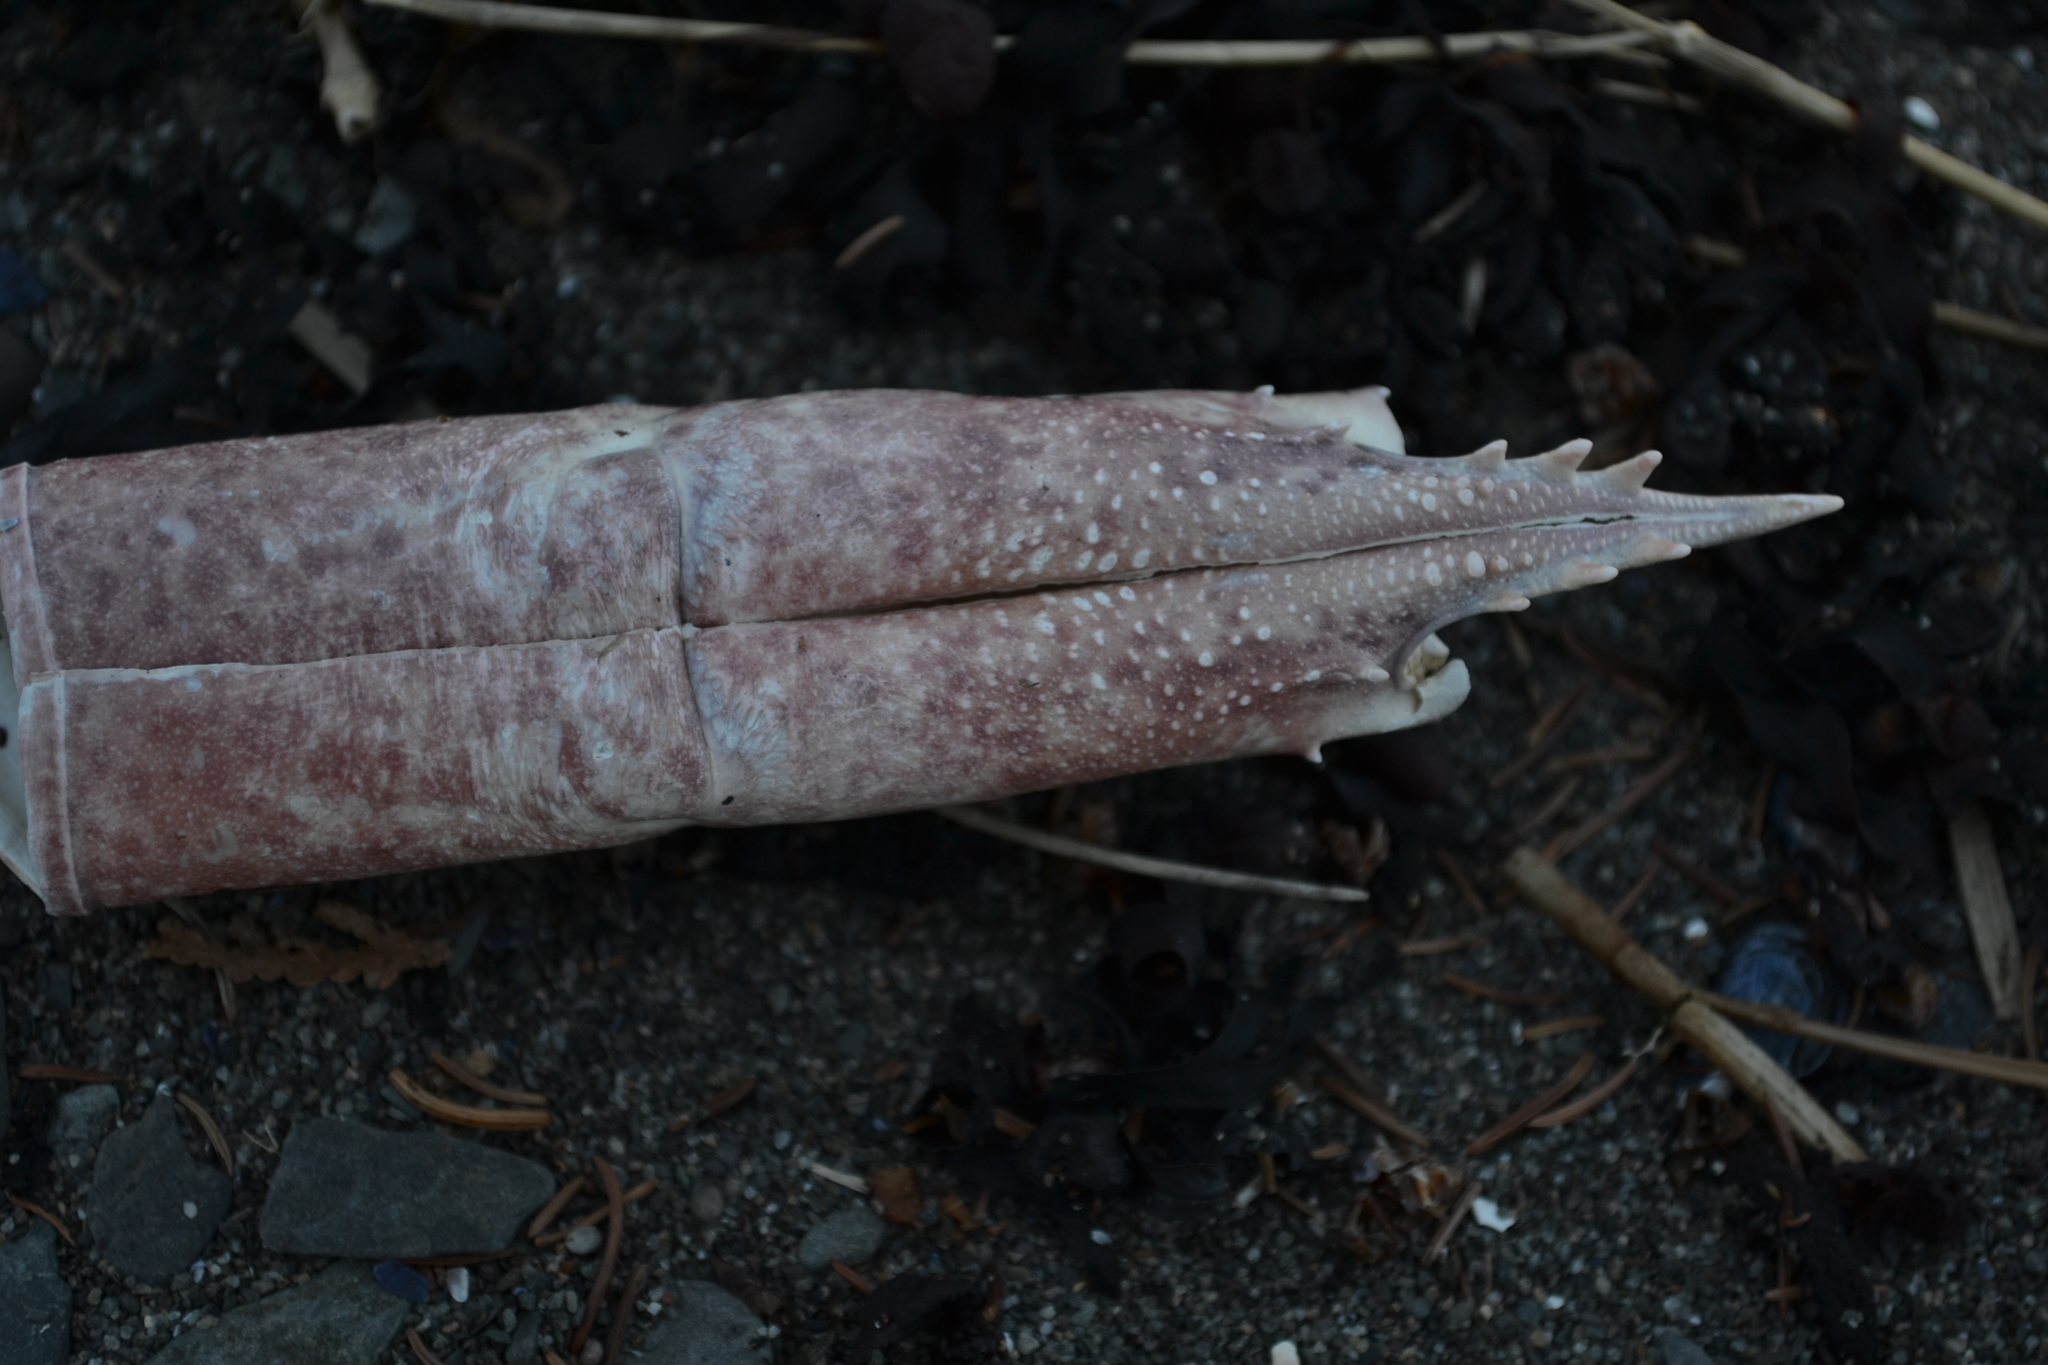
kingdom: Animalia
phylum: Arthropoda
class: Malacostraca
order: Decapoda
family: Nephropidae
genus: Homarus
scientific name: Homarus americanus
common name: American lobster
